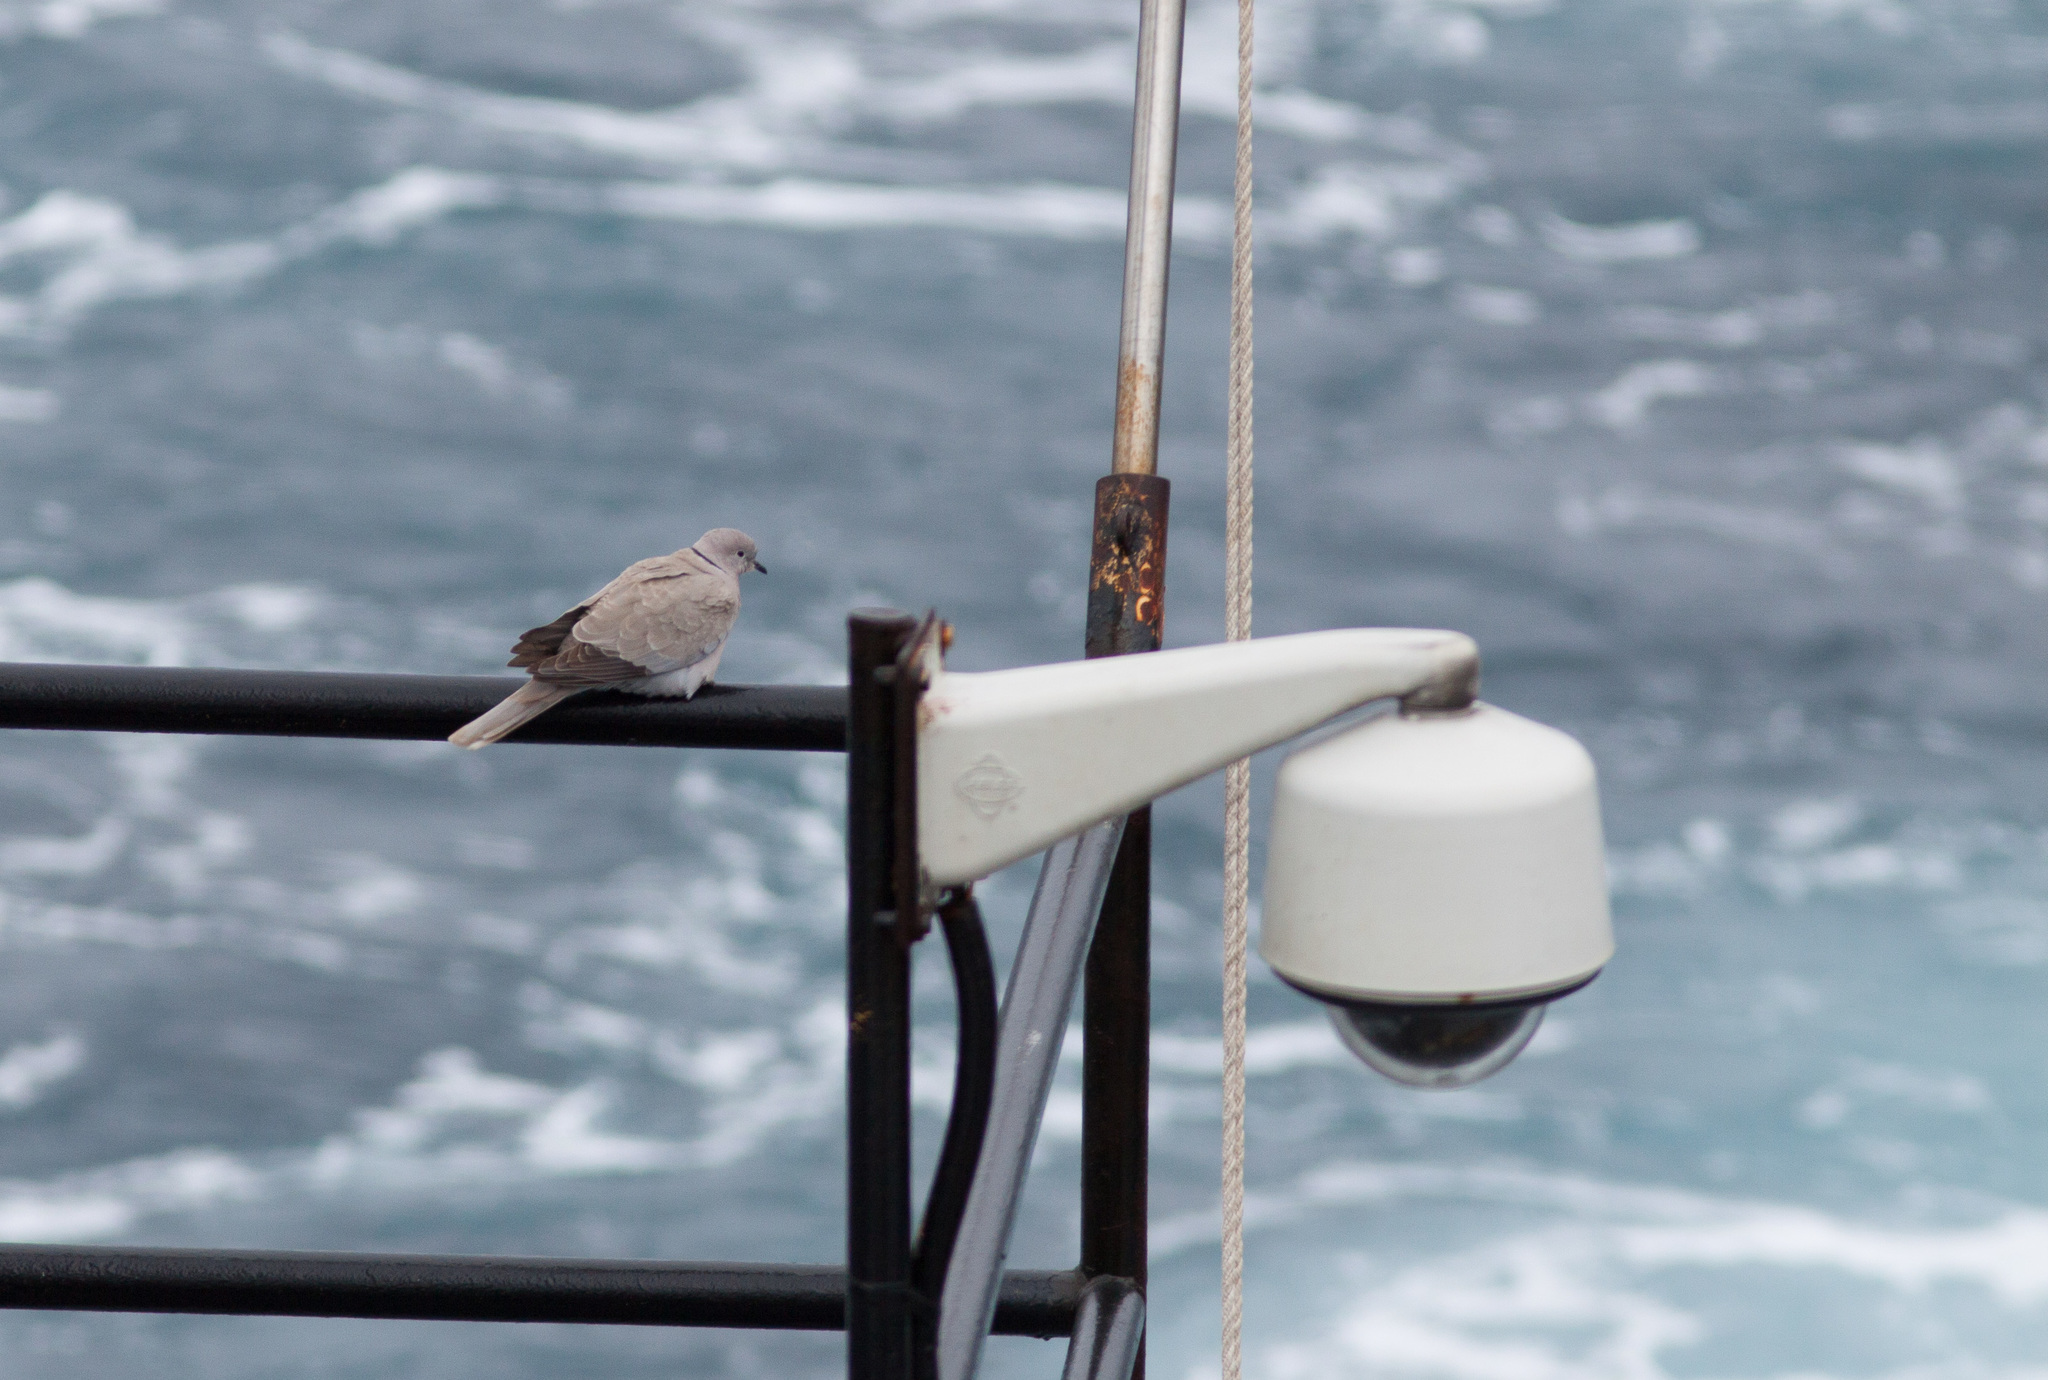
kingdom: Animalia
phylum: Chordata
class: Aves
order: Columbiformes
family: Columbidae
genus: Streptopelia
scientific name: Streptopelia decaocto
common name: Eurasian collared dove
